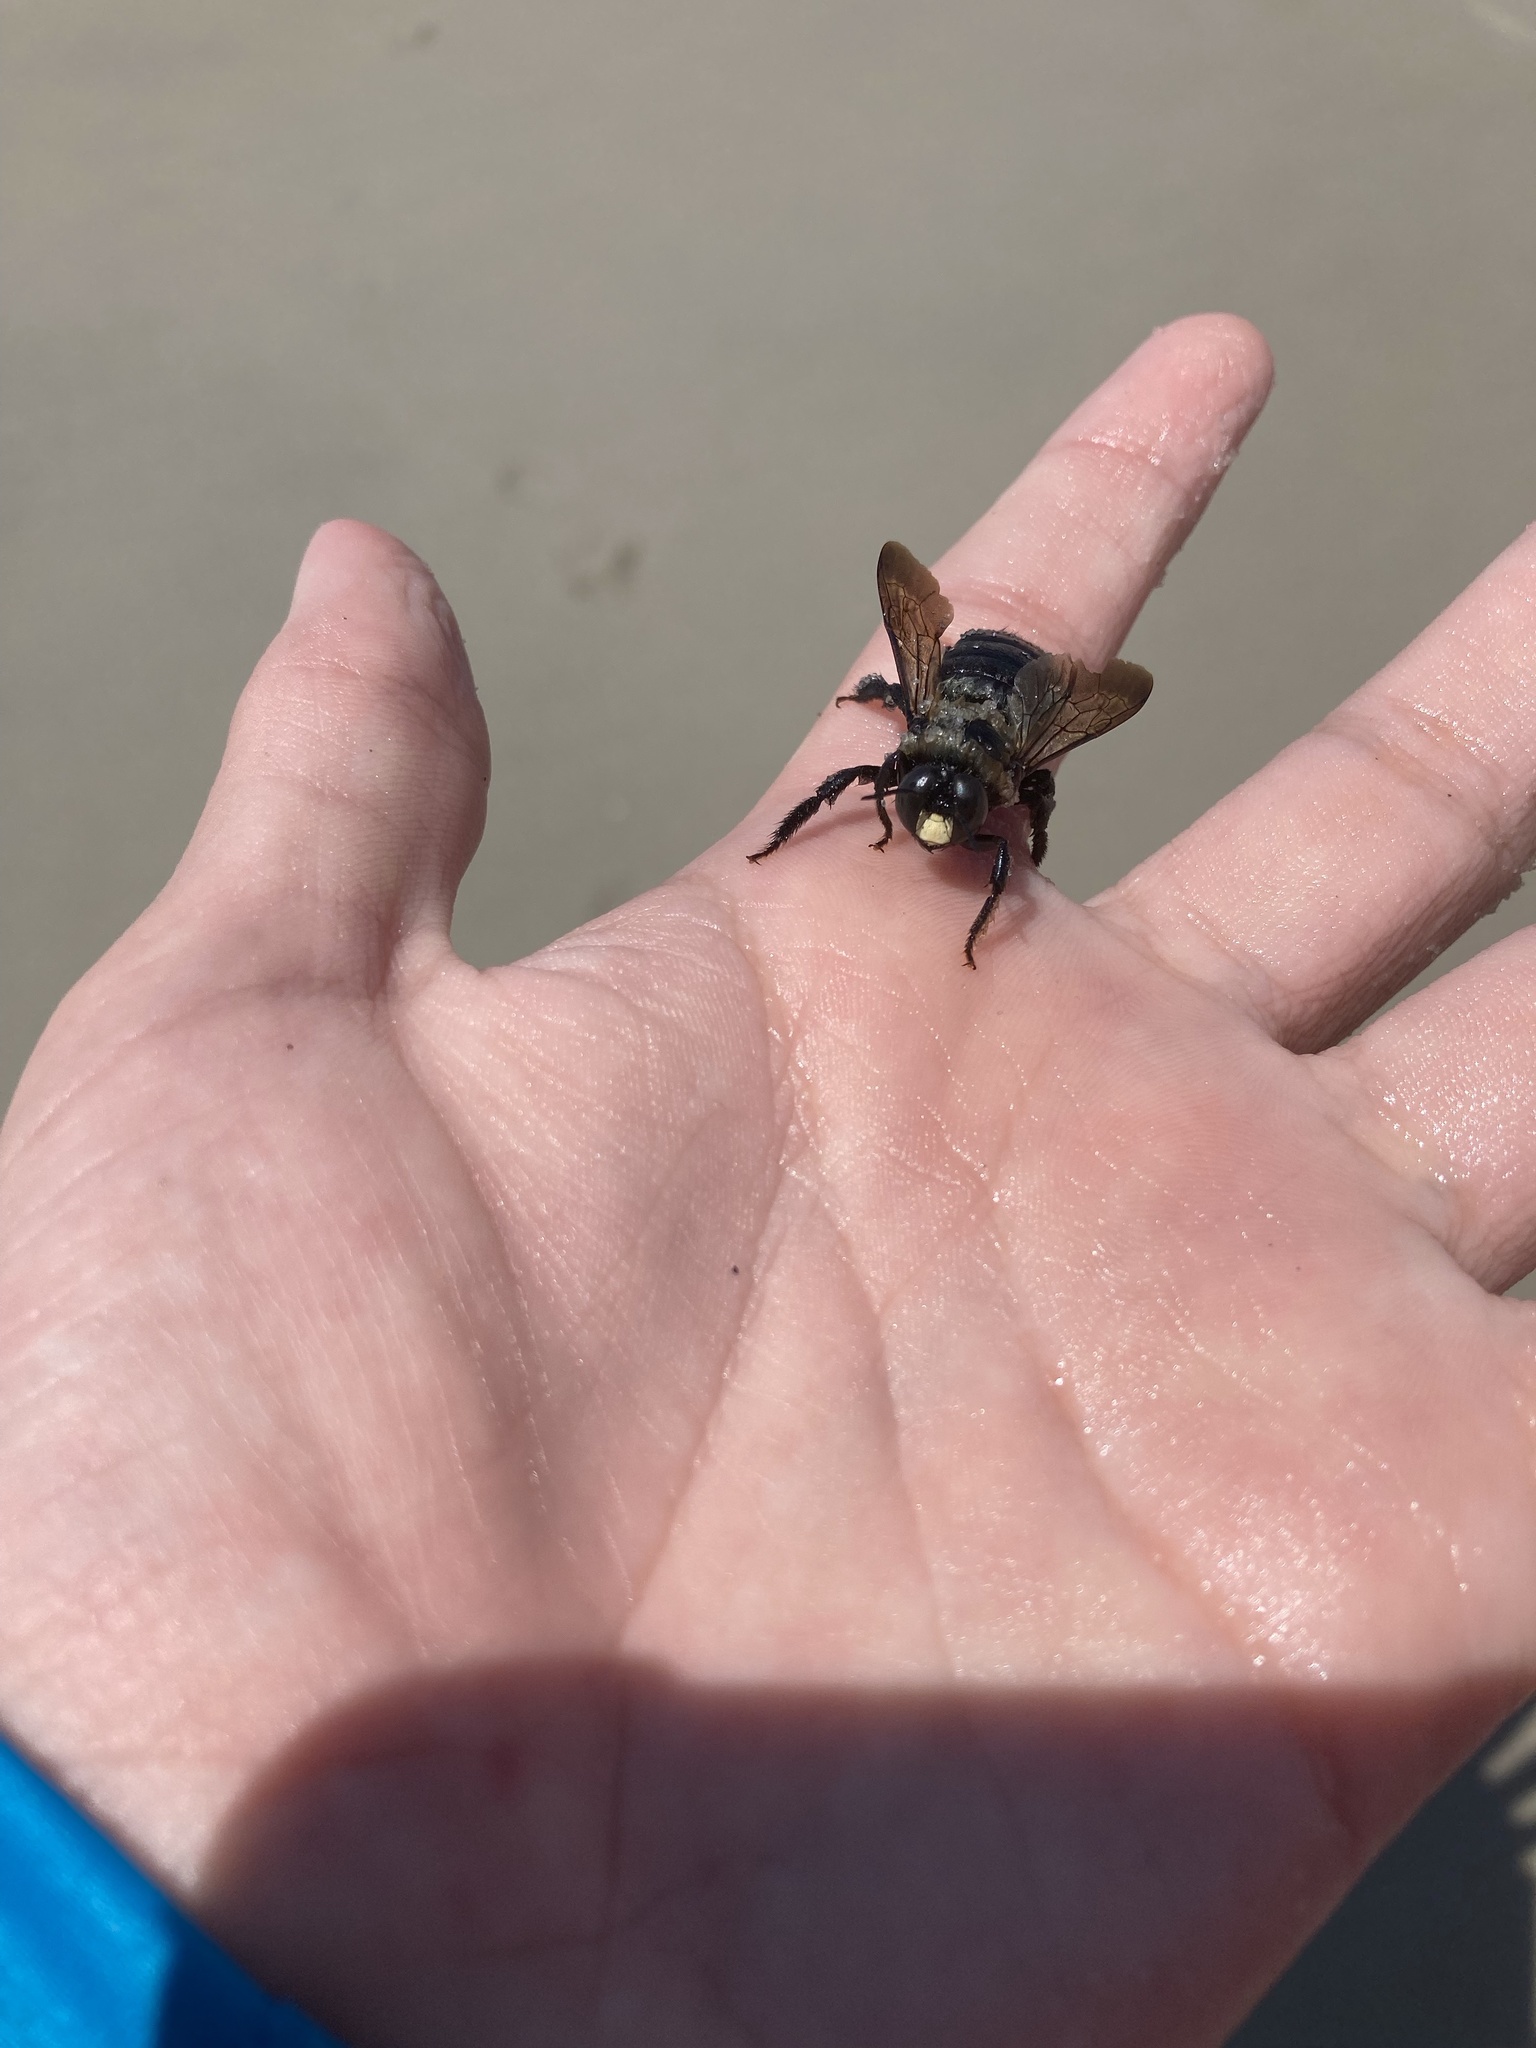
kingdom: Animalia
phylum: Arthropoda
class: Insecta
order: Hymenoptera
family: Apidae
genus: Xylocopa
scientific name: Xylocopa virginica
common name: Carpenter bee
